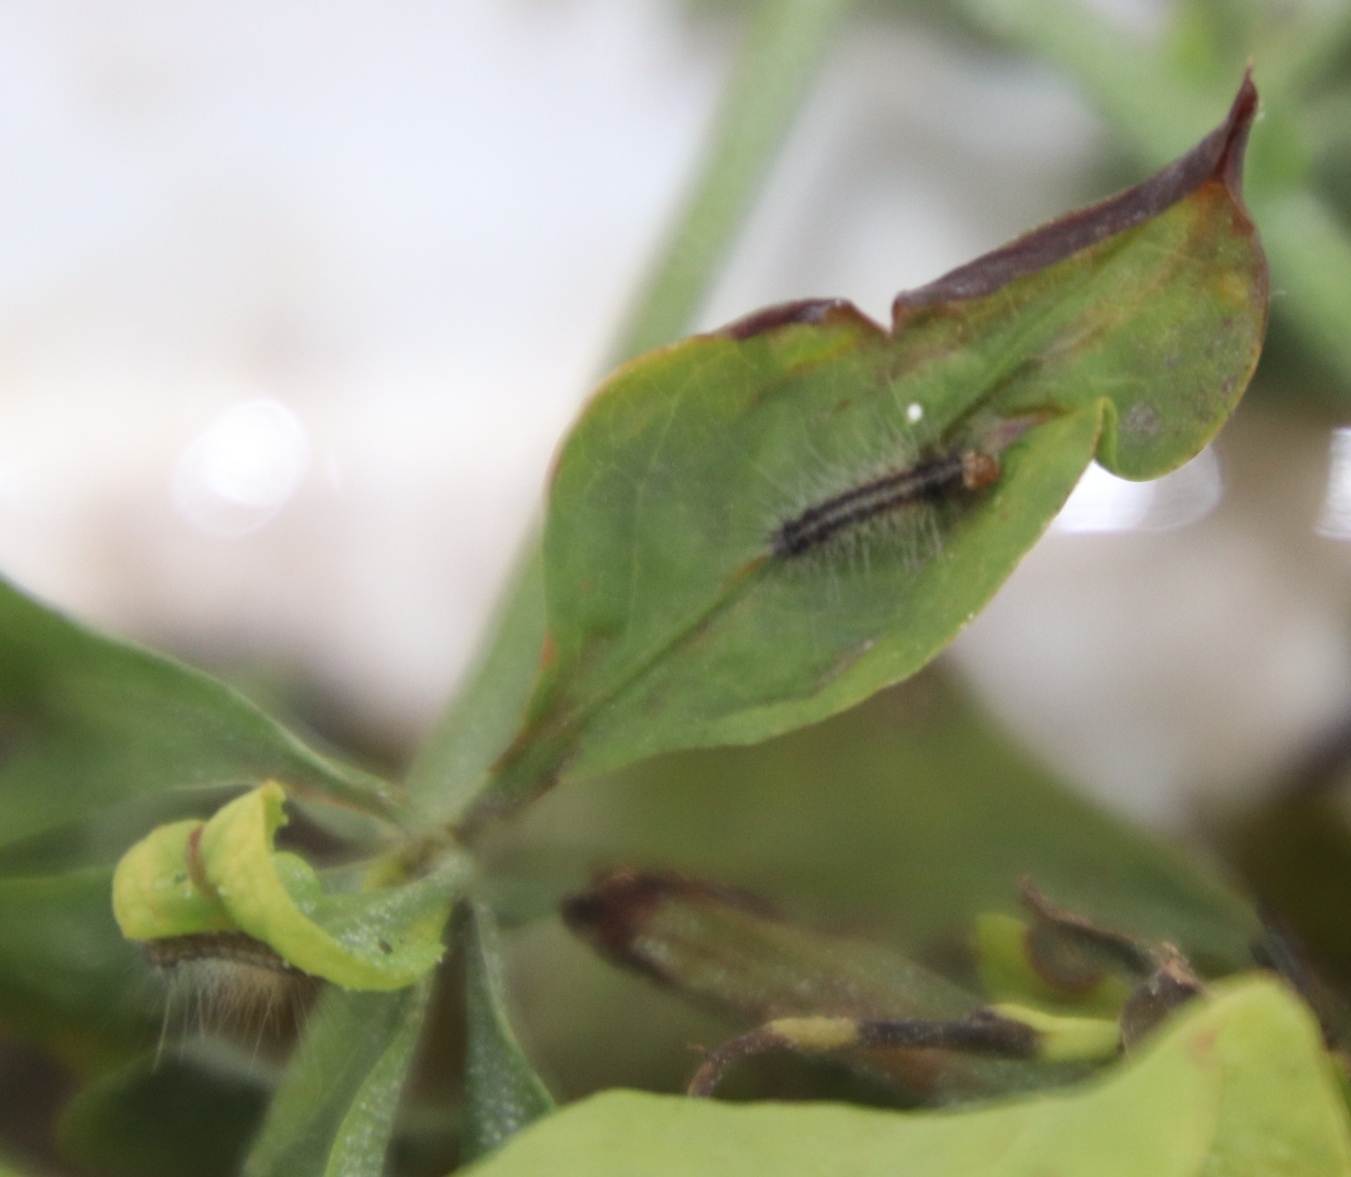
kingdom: Animalia
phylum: Arthropoda
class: Insecta
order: Lepidoptera
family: Erebidae
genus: Rhodogastria
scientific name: Rhodogastria amasis
